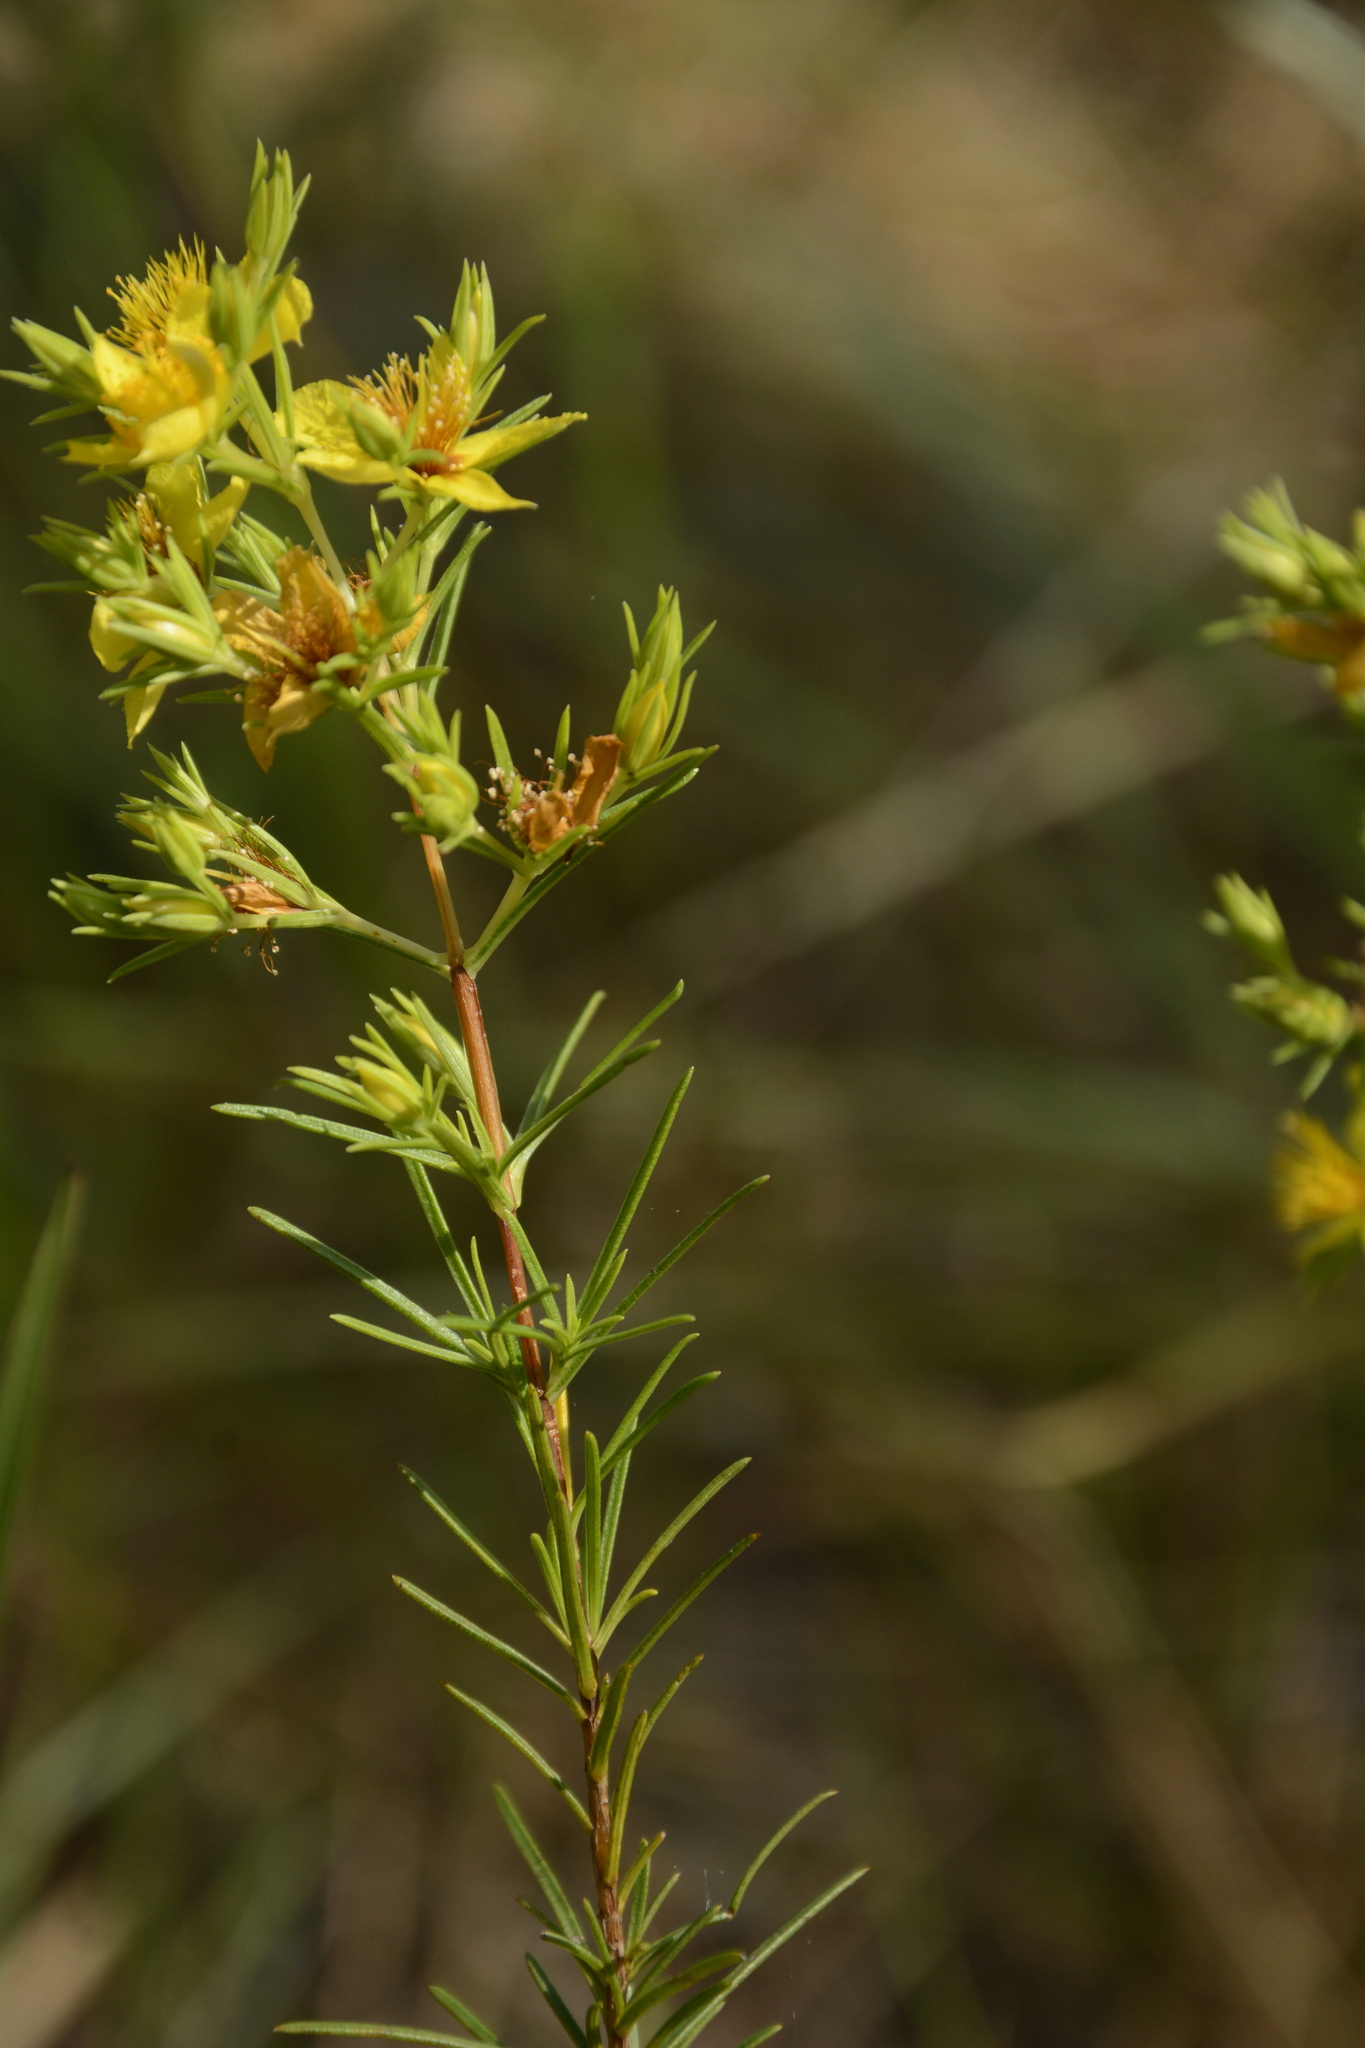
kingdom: Plantae
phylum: Tracheophyta
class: Magnoliopsida
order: Malpighiales
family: Hypericaceae
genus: Hypericum
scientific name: Hypericum brachyphyllum
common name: Coastal plain st. john's-wort
